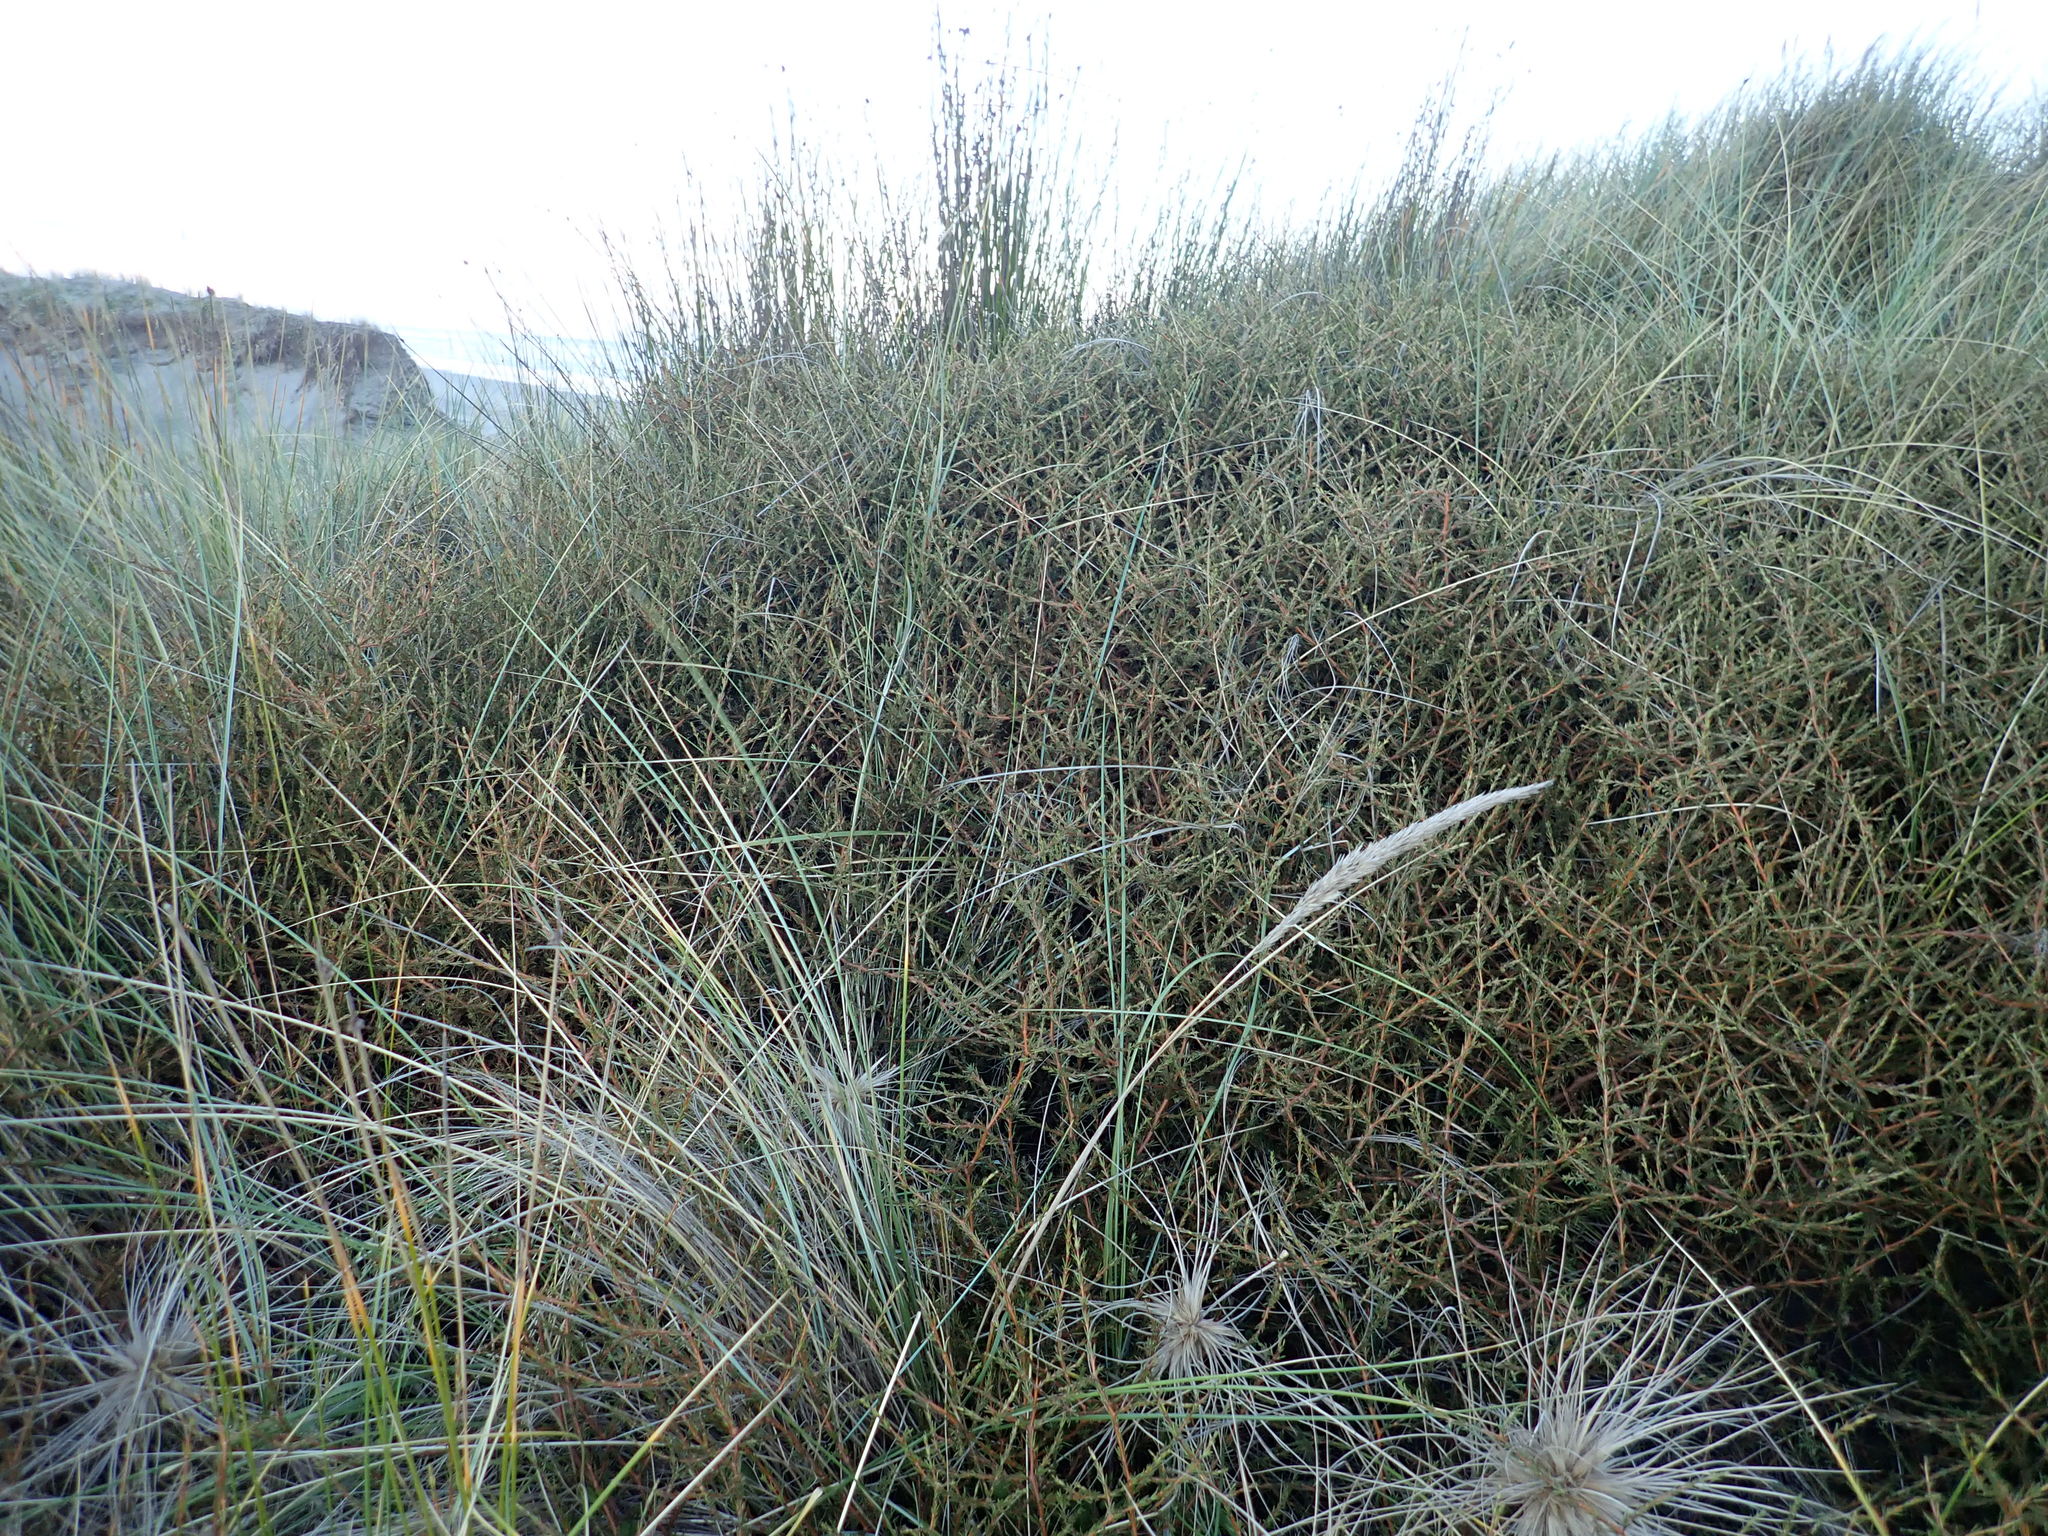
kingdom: Plantae
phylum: Tracheophyta
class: Magnoliopsida
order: Gentianales
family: Rubiaceae
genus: Coprosma
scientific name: Coprosma acerosa
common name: Sand coprosma
